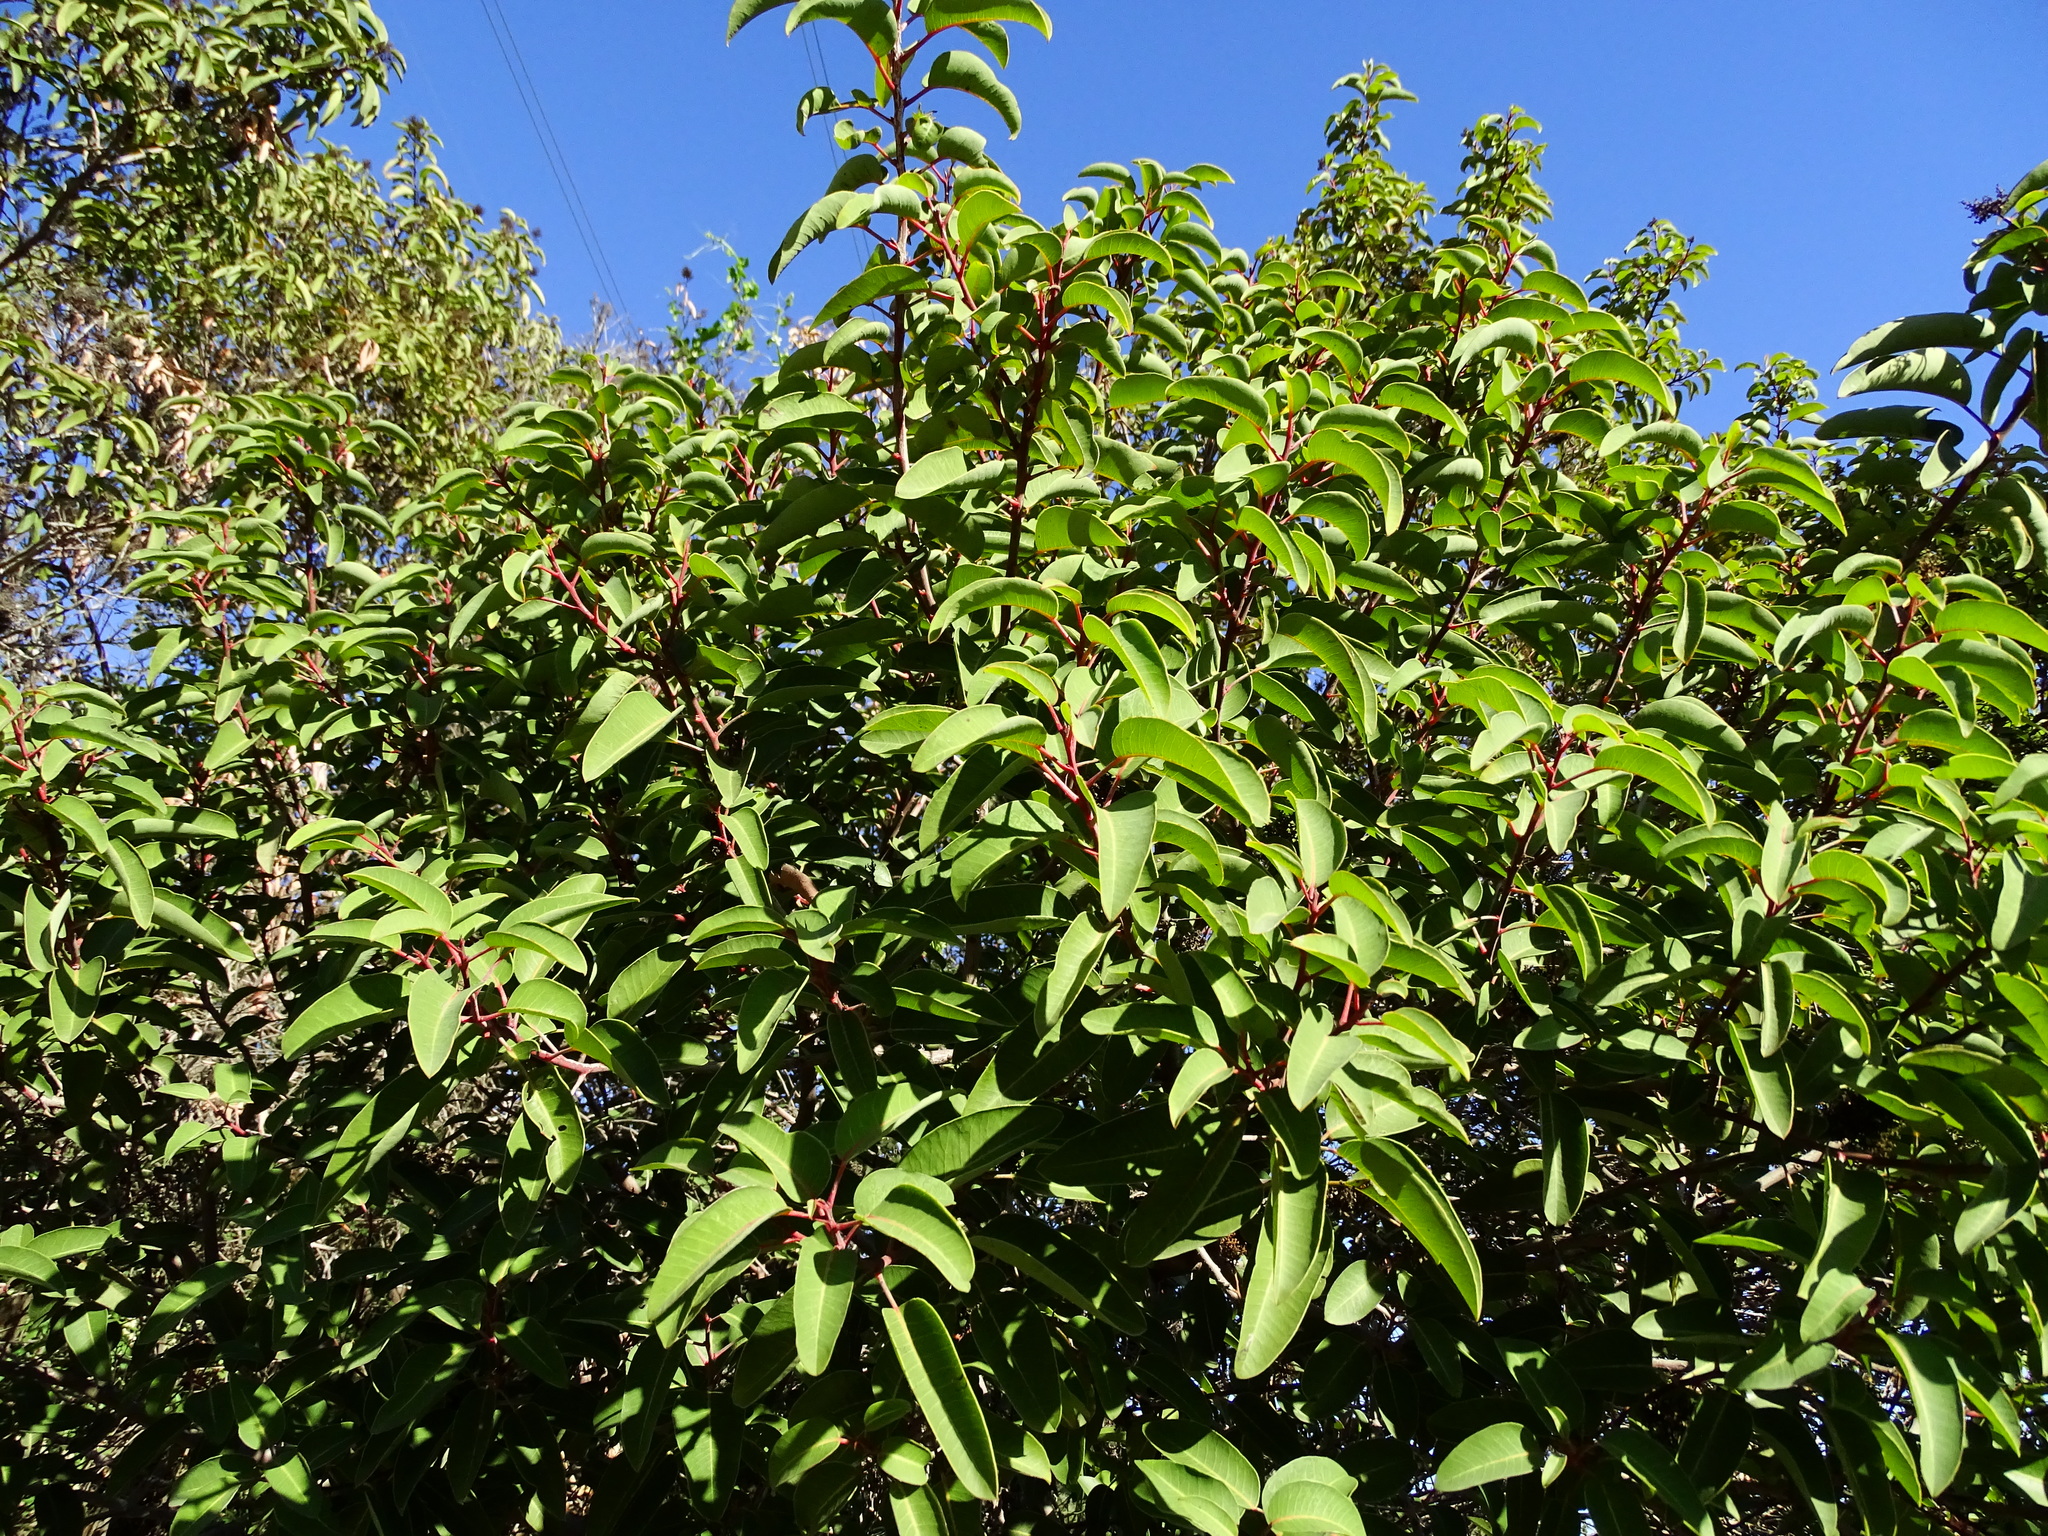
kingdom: Plantae
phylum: Tracheophyta
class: Magnoliopsida
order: Sapindales
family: Anacardiaceae
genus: Malosma
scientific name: Malosma laurina
